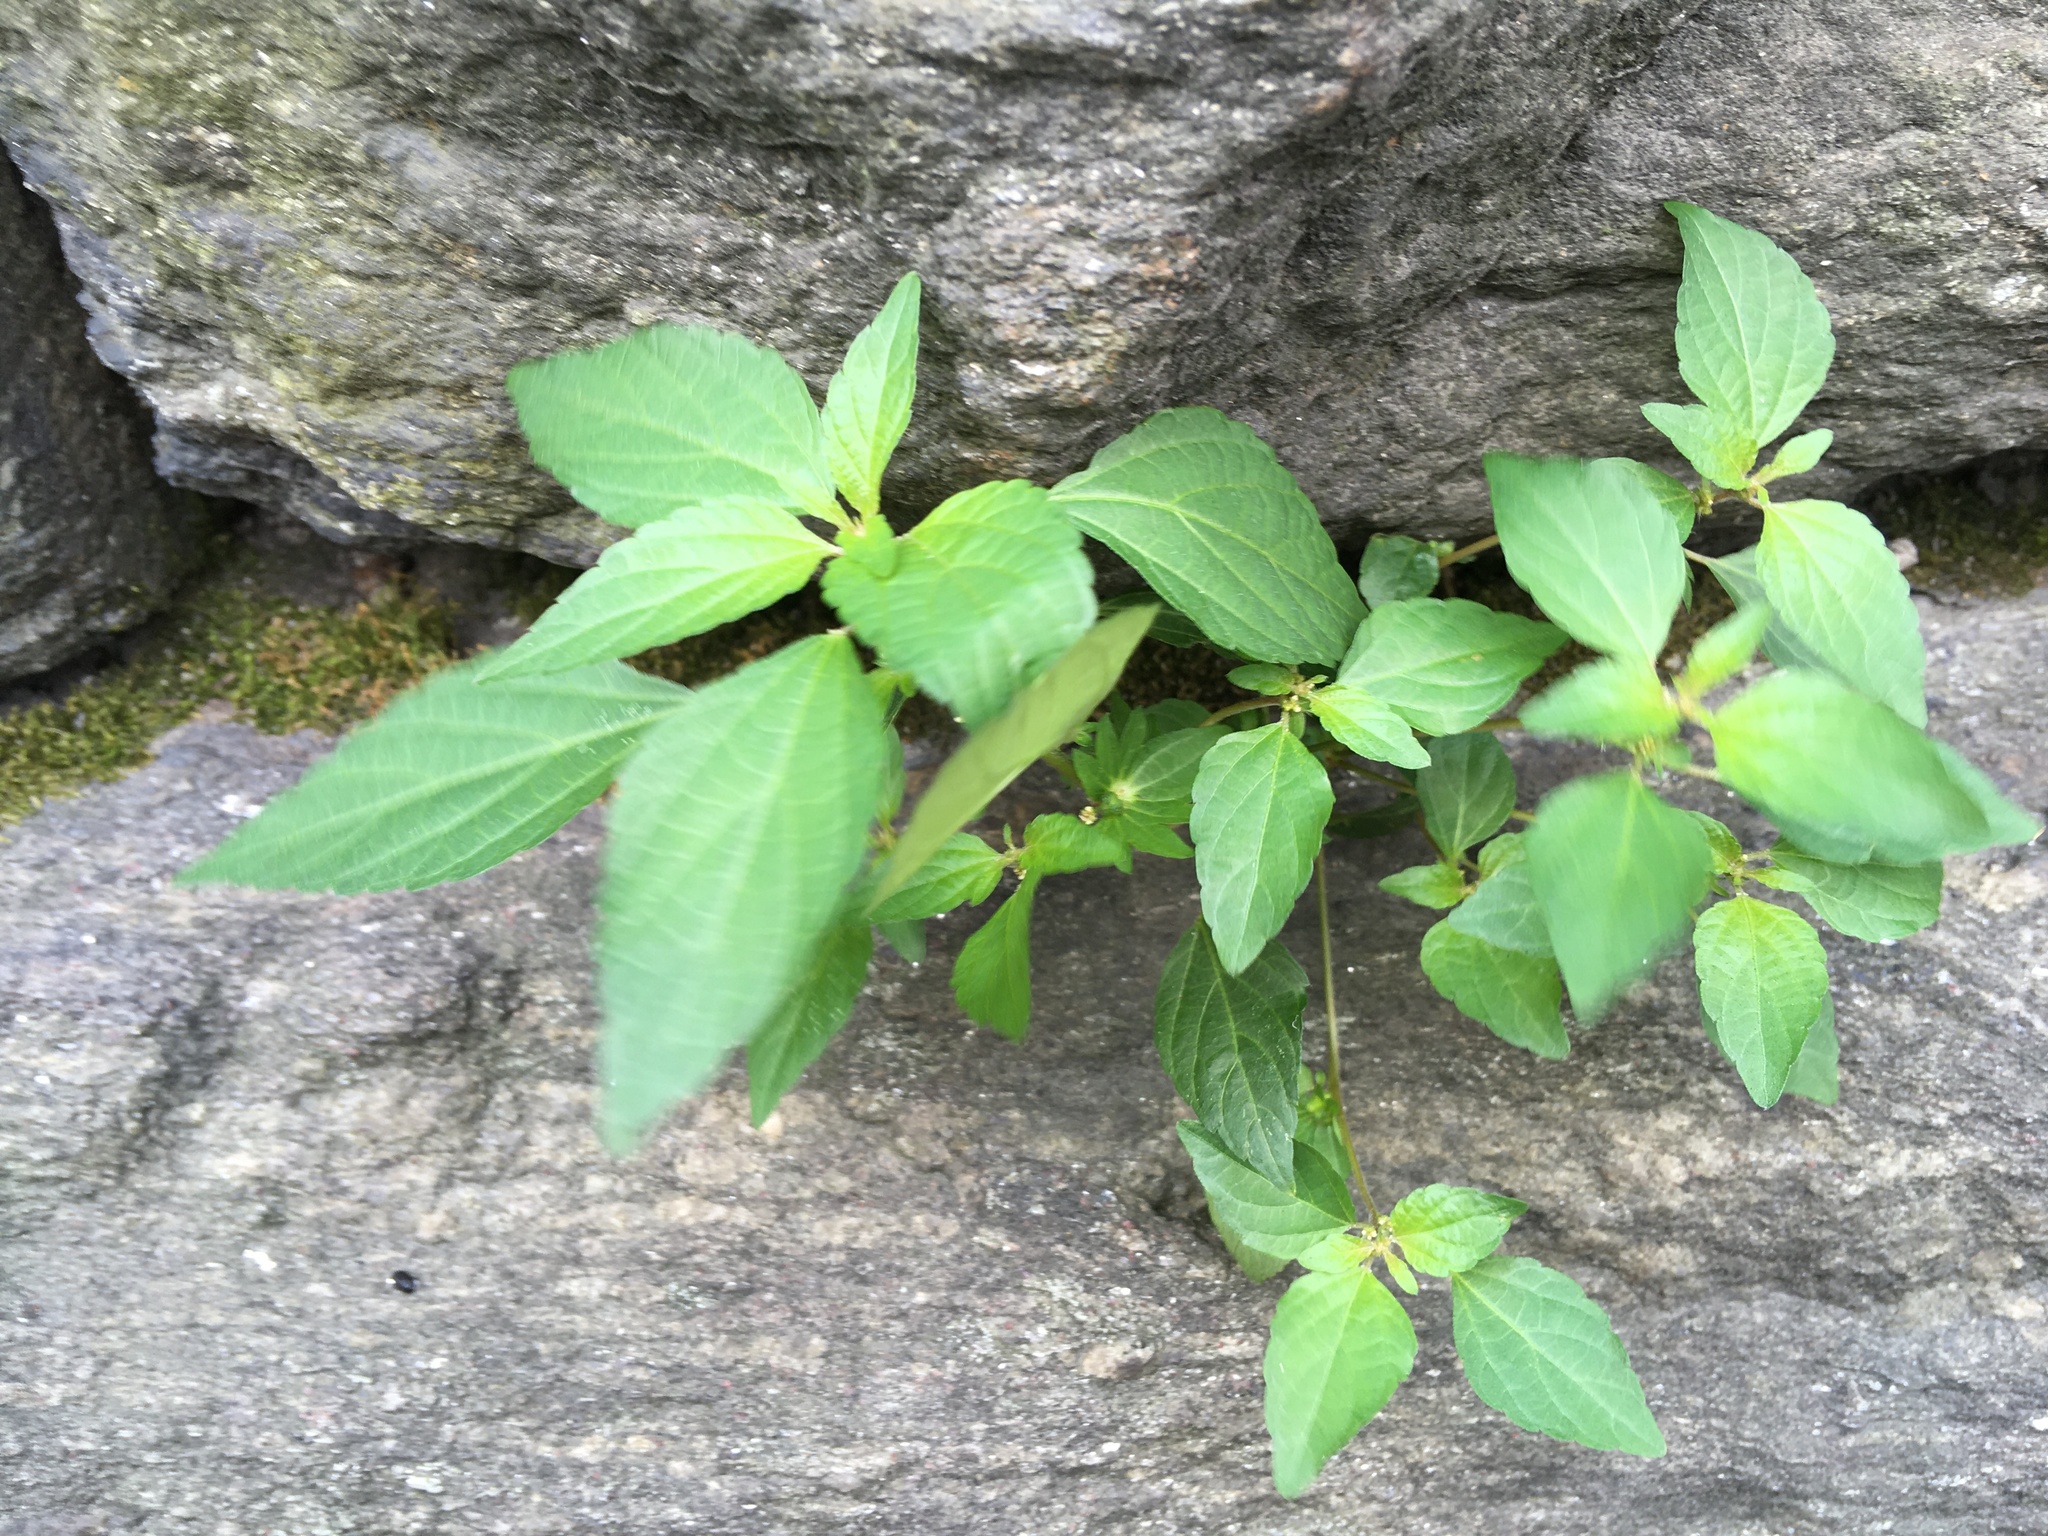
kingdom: Plantae
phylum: Tracheophyta
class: Magnoliopsida
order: Malpighiales
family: Euphorbiaceae
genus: Acalypha
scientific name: Acalypha rhomboidea
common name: Rhombic copperleaf
